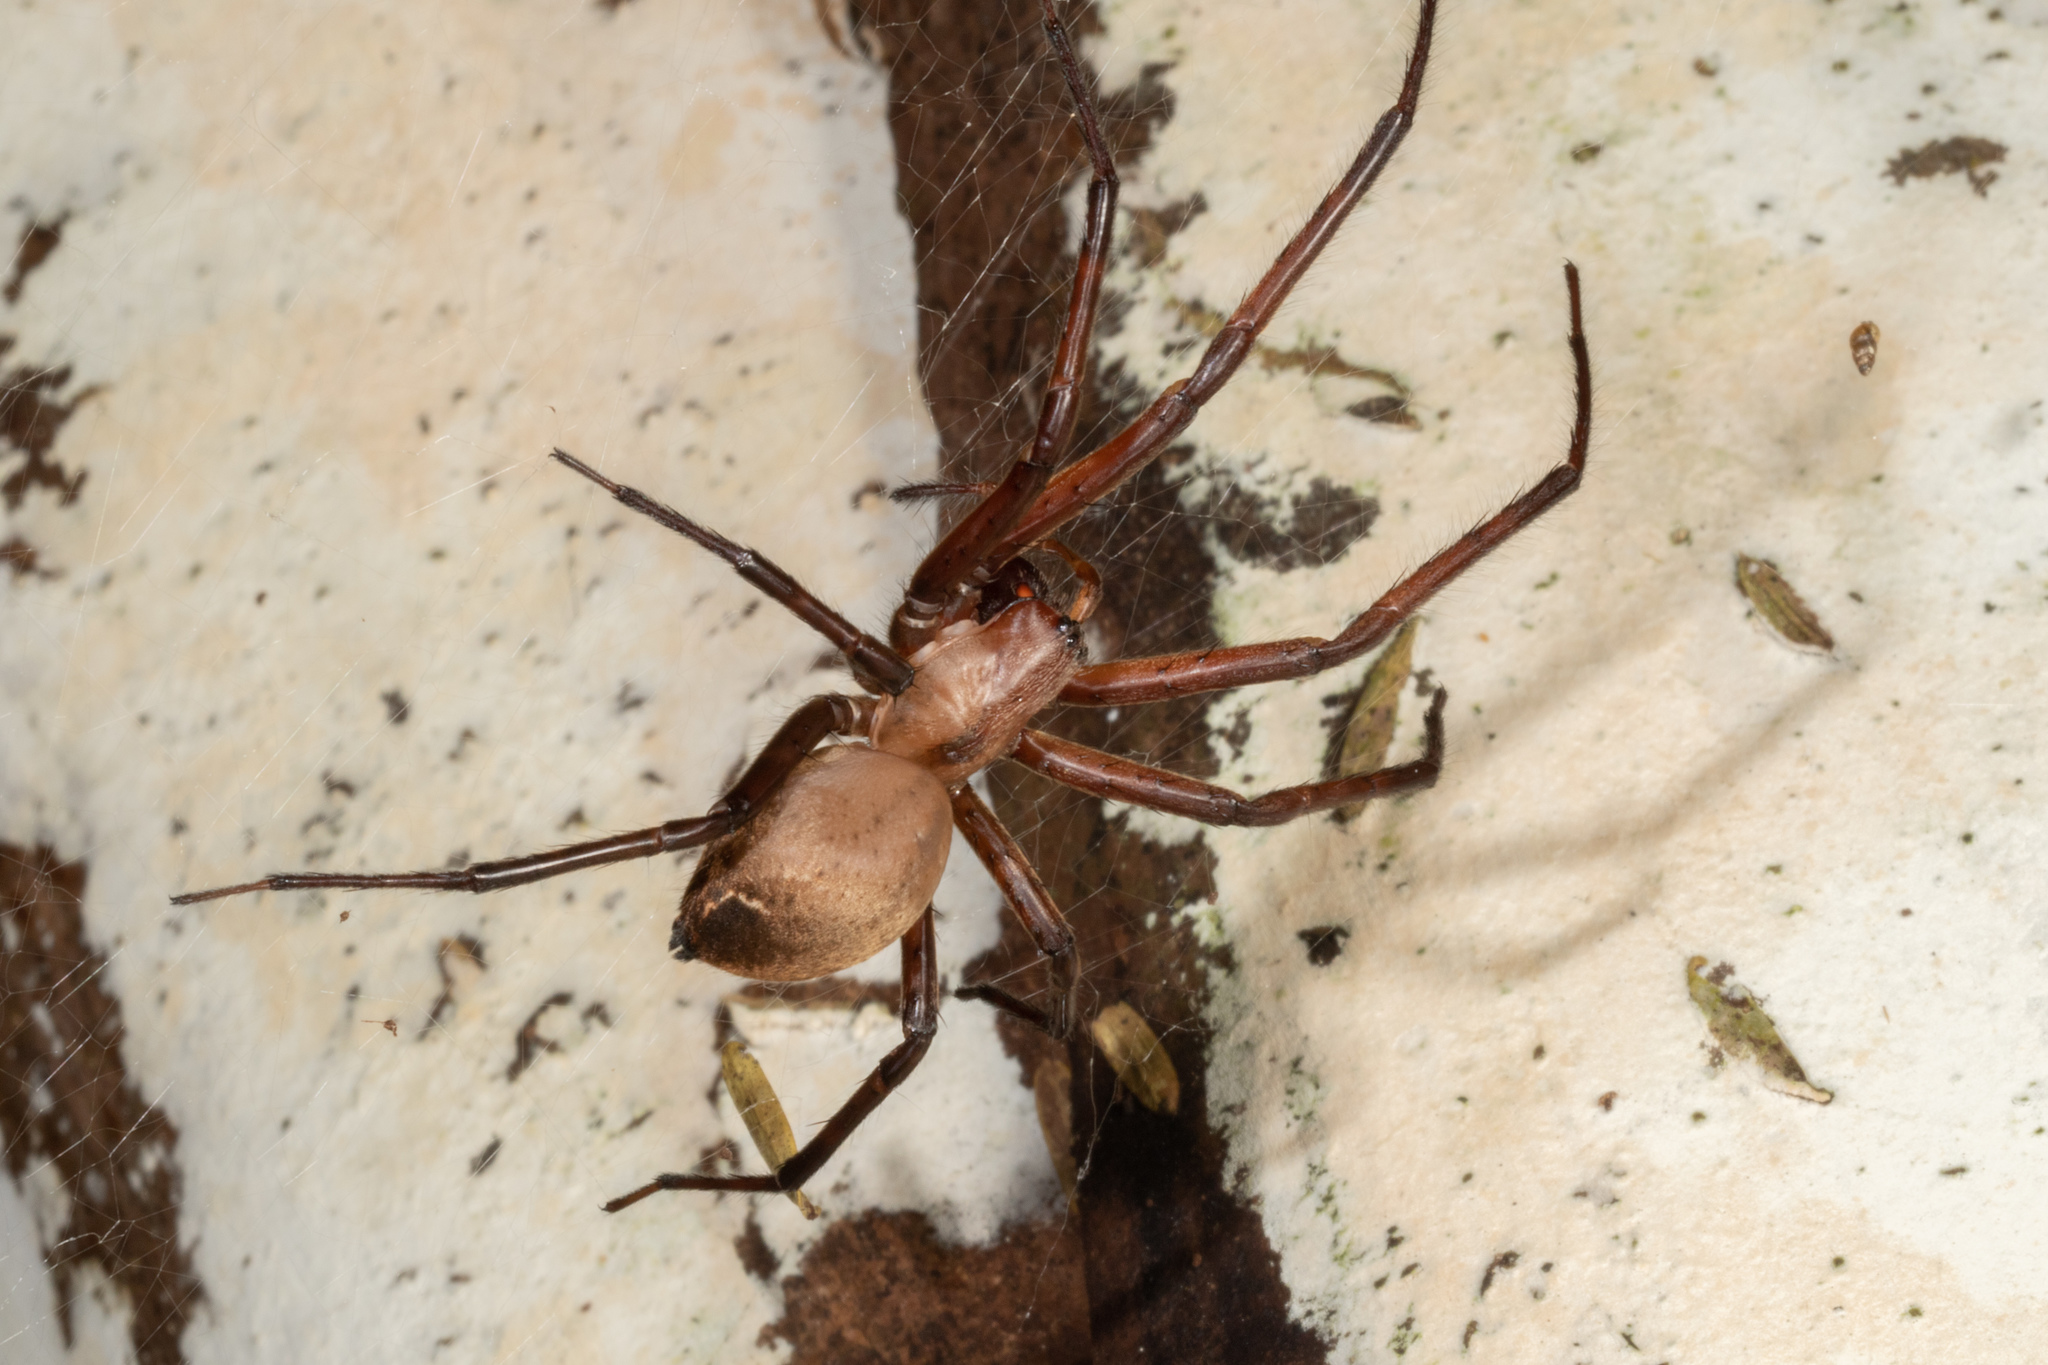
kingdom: Animalia
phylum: Arthropoda
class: Arachnida
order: Araneae
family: Desidae
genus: Cambridgea
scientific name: Cambridgea foliata
